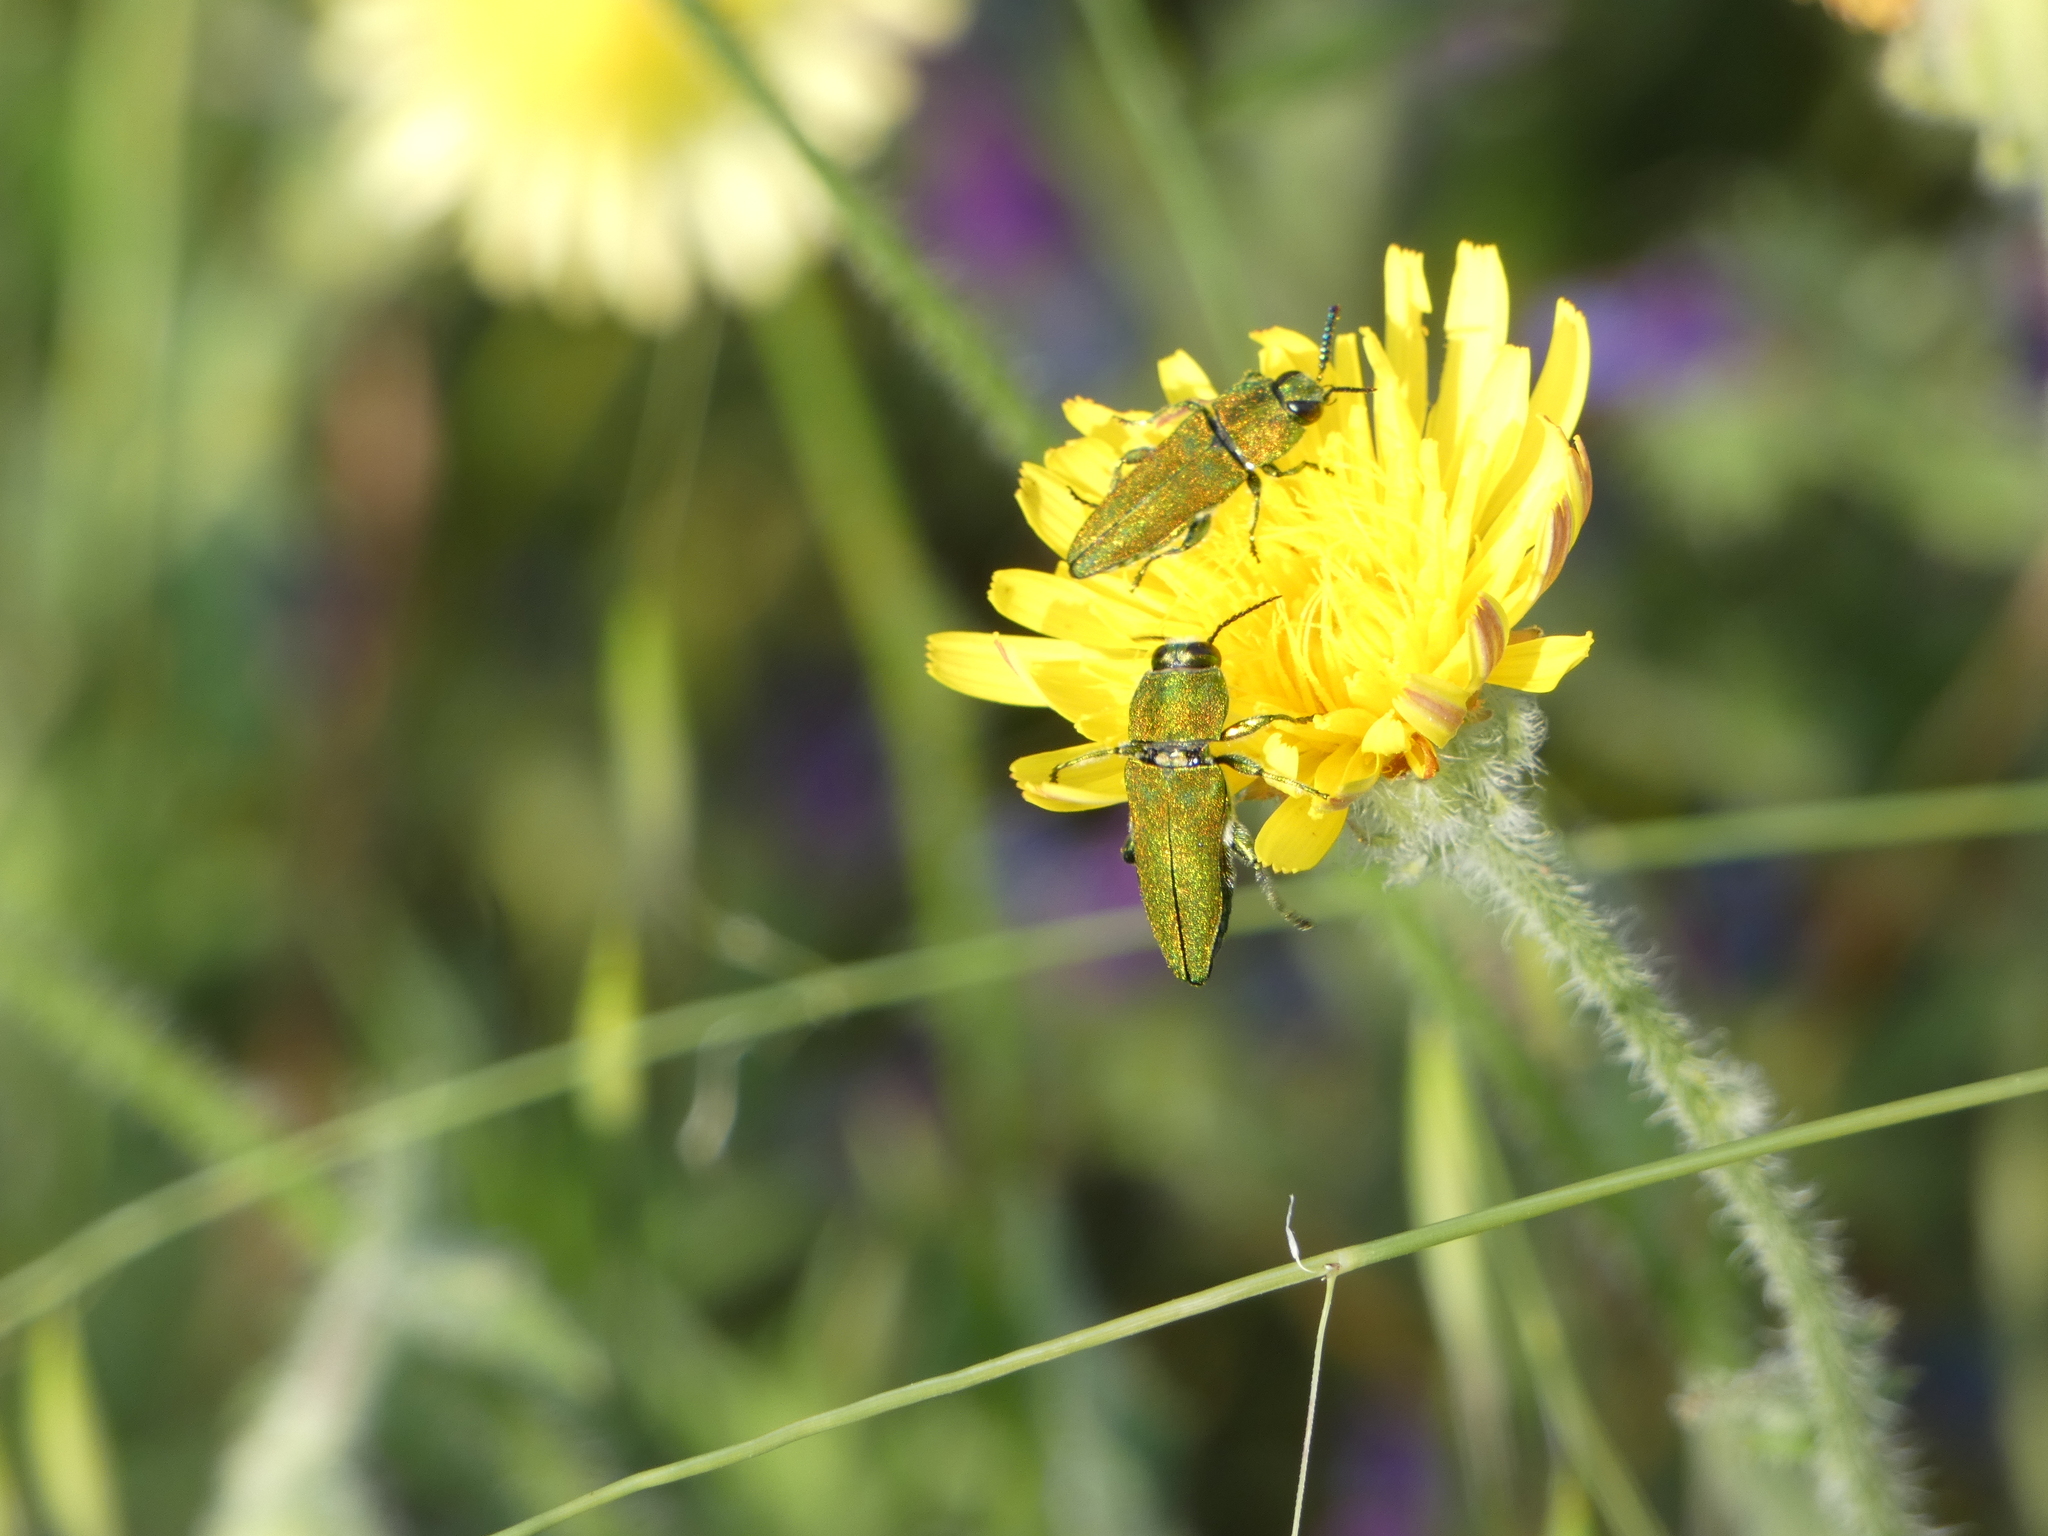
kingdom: Animalia
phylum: Arthropoda
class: Insecta
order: Coleoptera
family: Buprestidae
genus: Anthaxia
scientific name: Anthaxia hungarica
